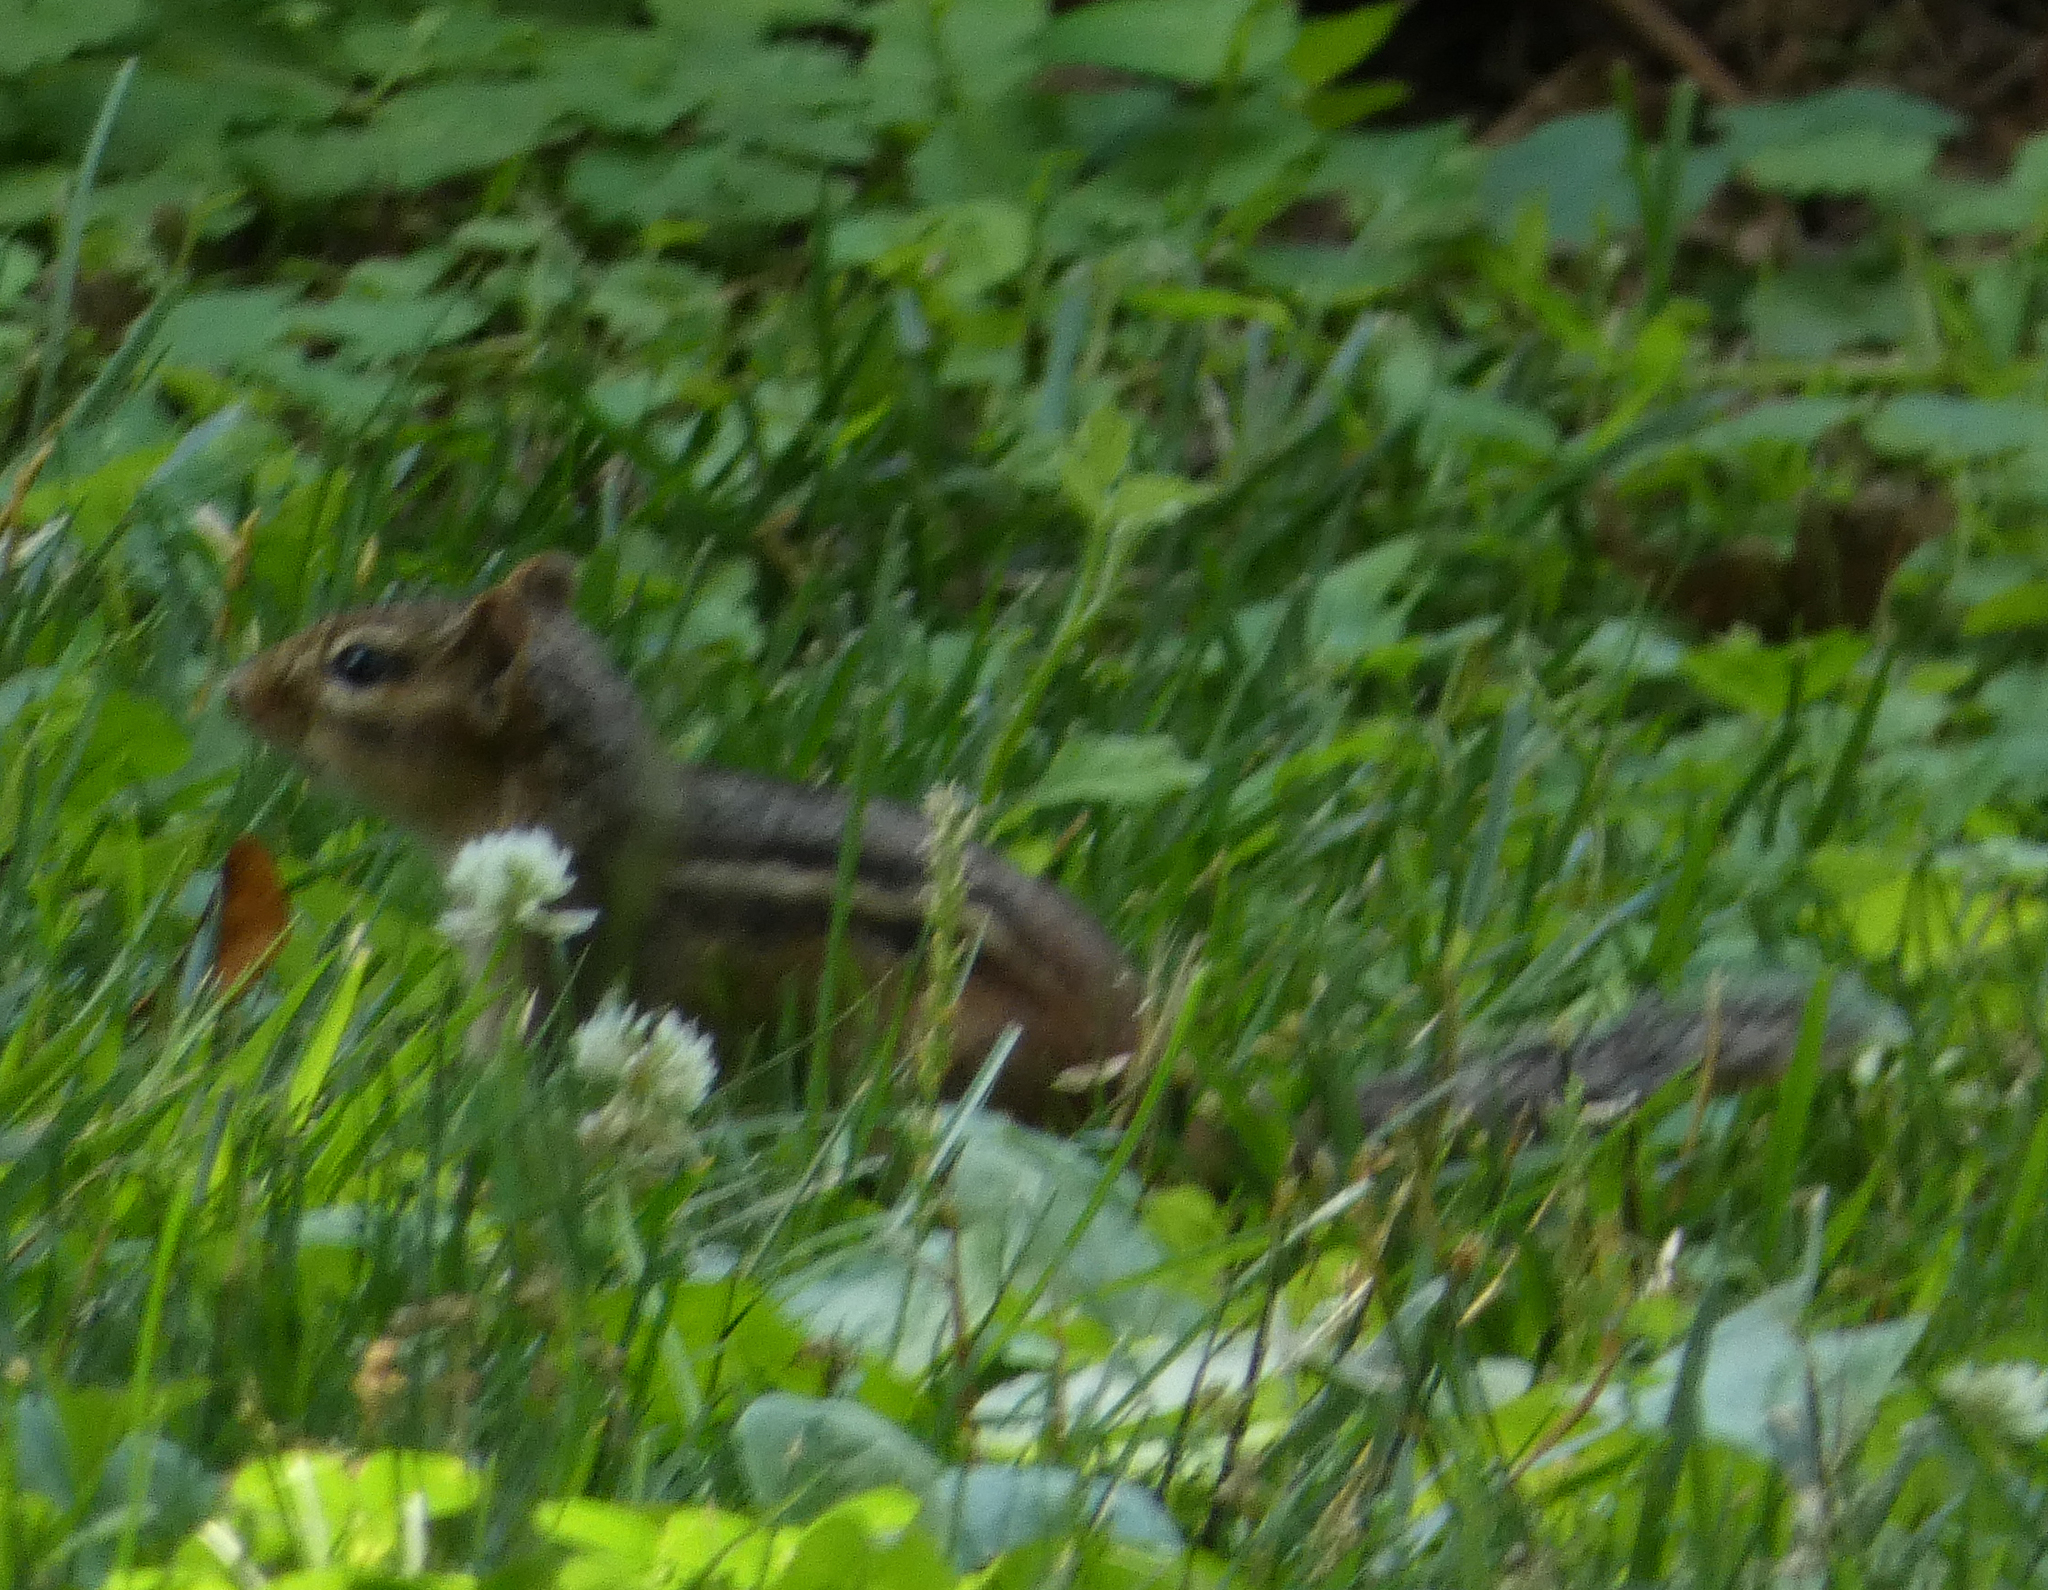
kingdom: Animalia
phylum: Chordata
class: Mammalia
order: Rodentia
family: Sciuridae
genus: Tamias
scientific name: Tamias striatus
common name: Eastern chipmunk
